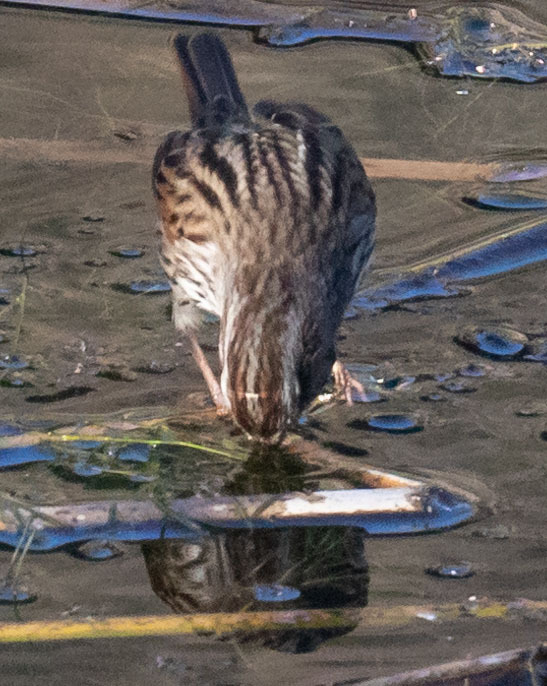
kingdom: Animalia
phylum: Chordata
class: Aves
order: Passeriformes
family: Passerellidae
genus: Melospiza
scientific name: Melospiza melodia
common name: Song sparrow
